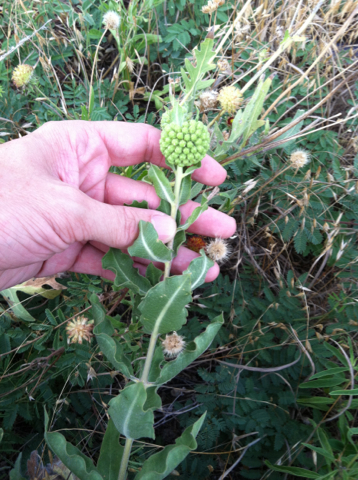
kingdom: Plantae
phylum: Tracheophyta
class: Magnoliopsida
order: Gentianales
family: Apocynaceae
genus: Asclepias
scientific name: Asclepias viridiflora
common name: Green comet milkweed
